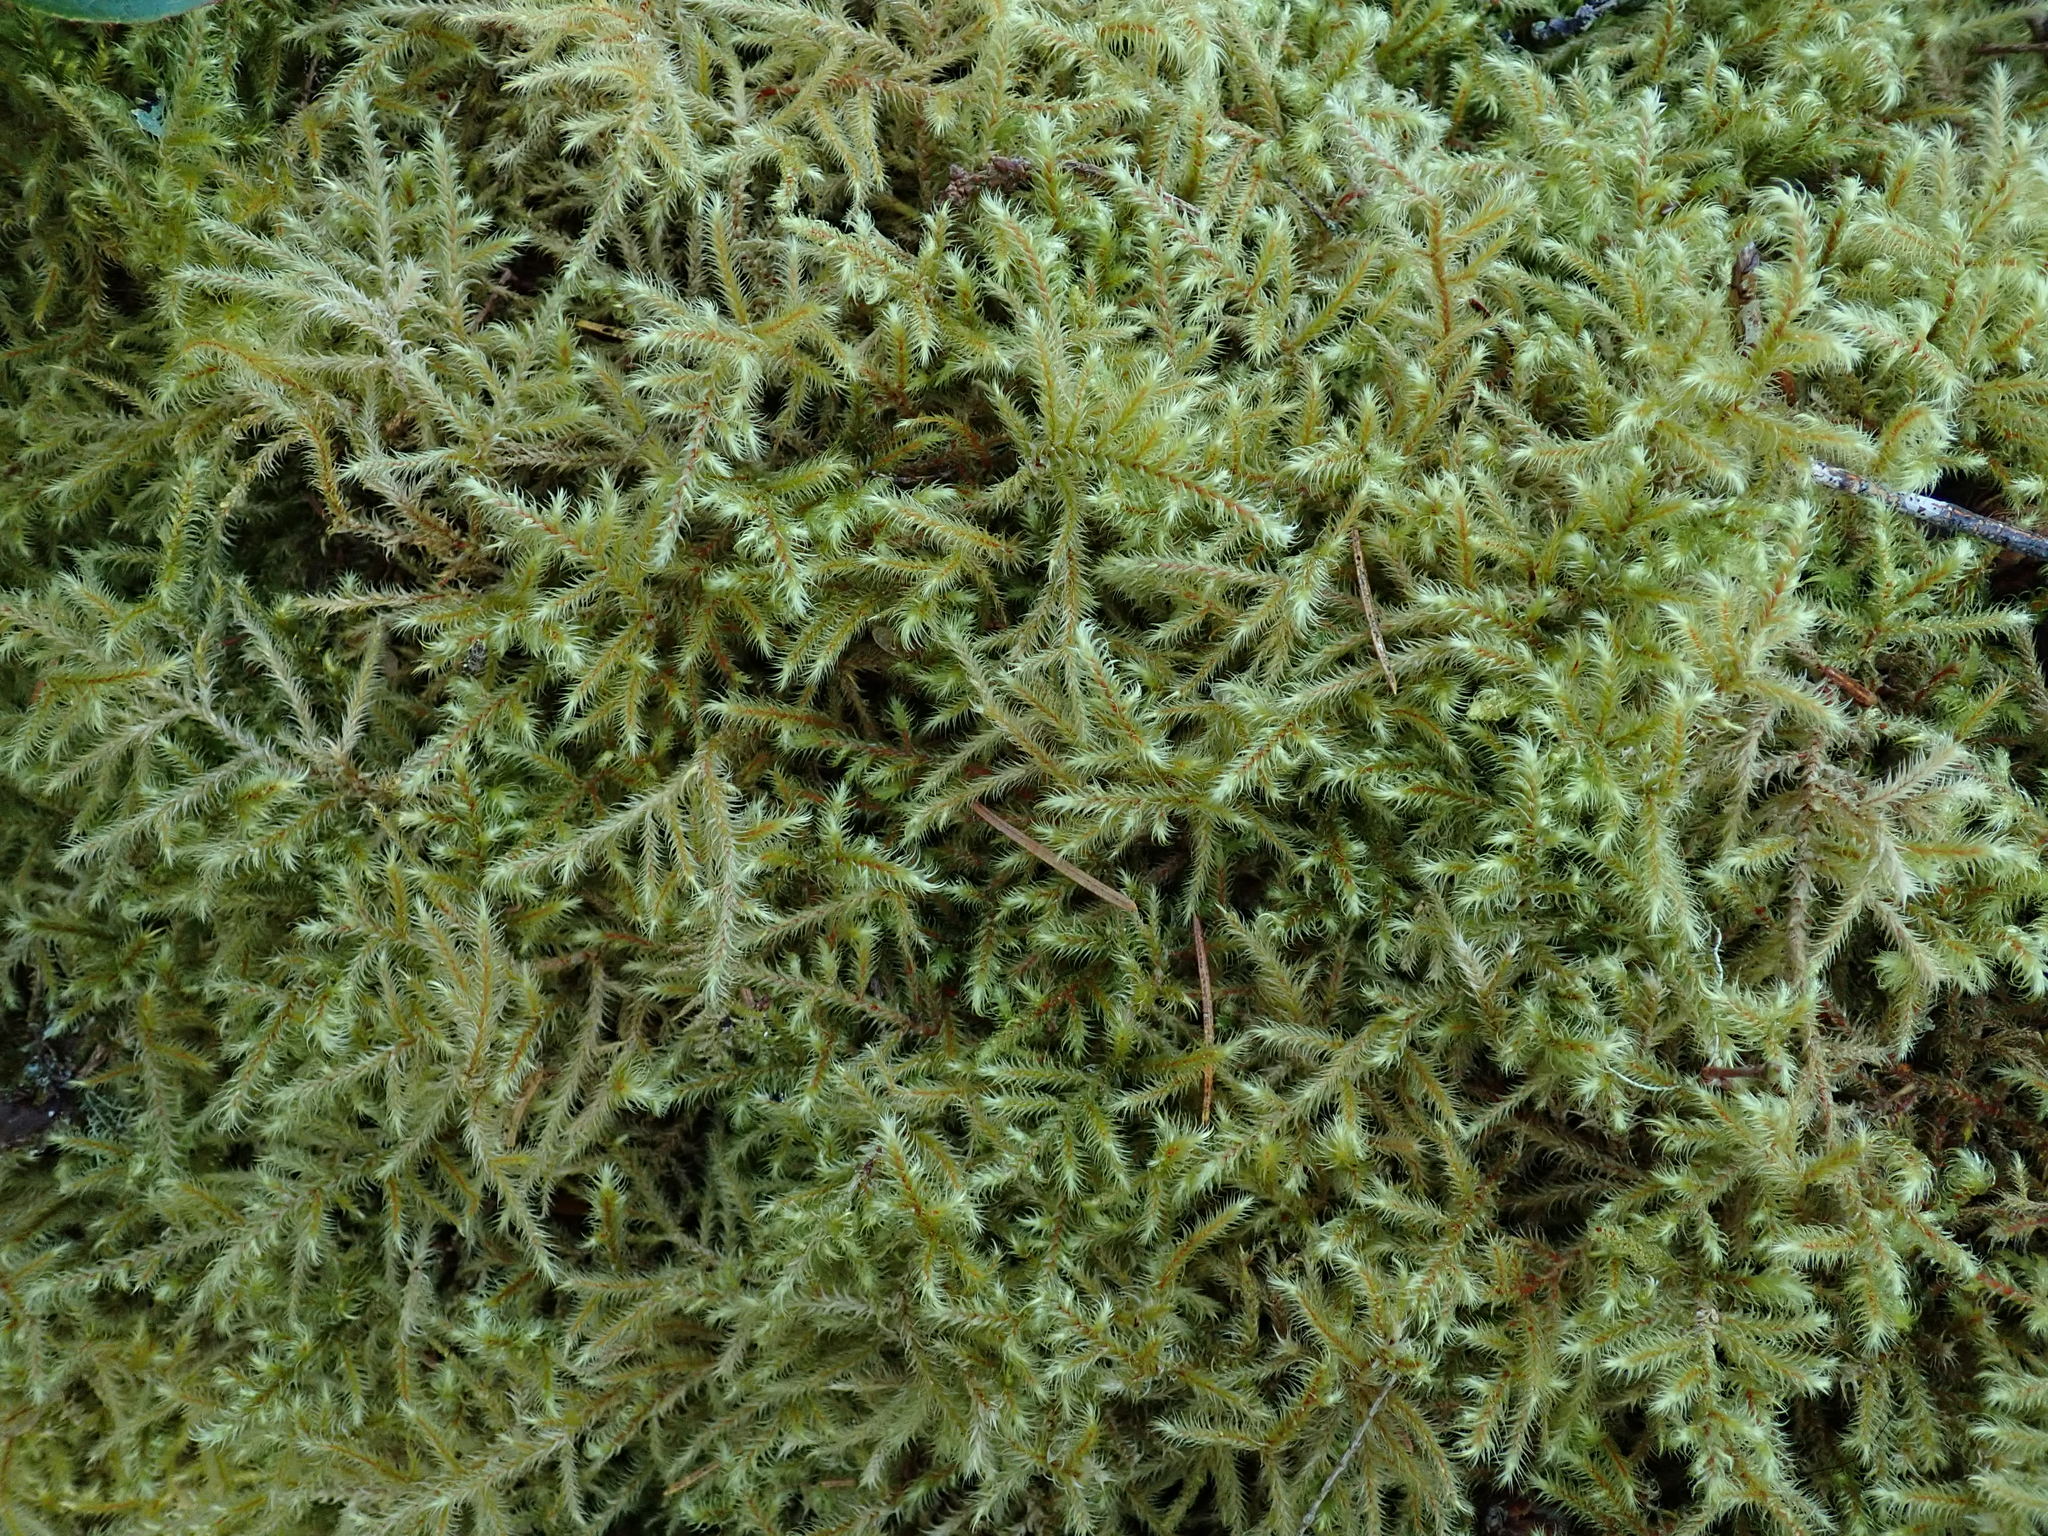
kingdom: Plantae
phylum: Bryophyta
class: Bryopsida
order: Hypnales
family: Hylocomiaceae
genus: Rhytidiadelphus
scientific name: Rhytidiadelphus loreus
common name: Lanky moss
